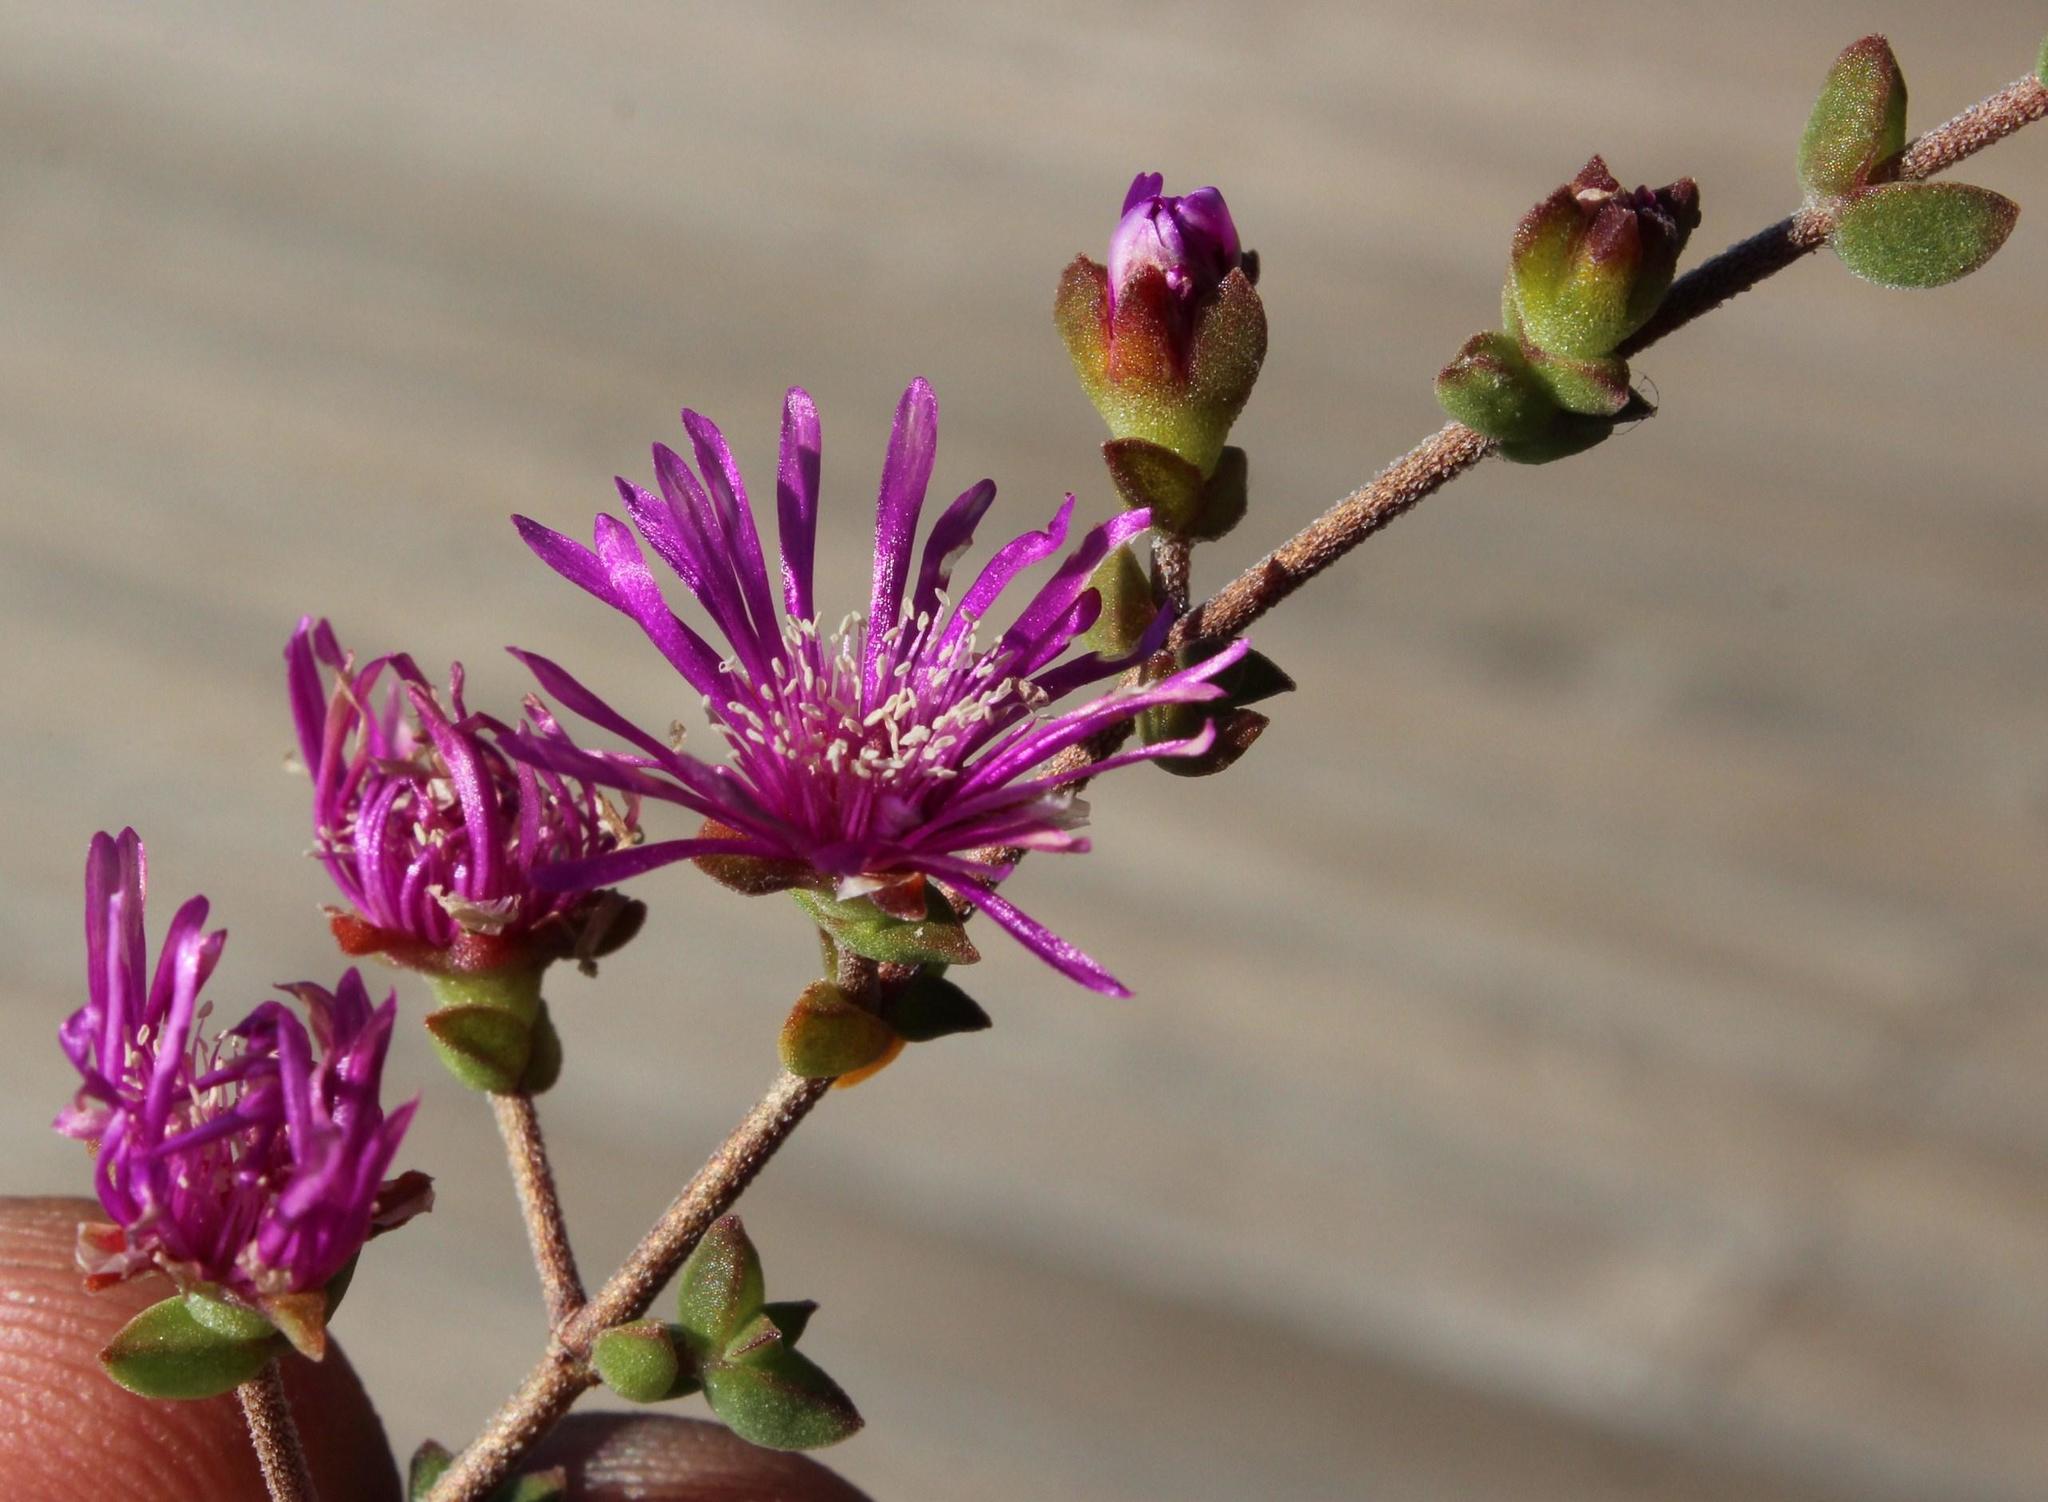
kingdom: Plantae
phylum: Tracheophyta
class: Magnoliopsida
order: Caryophyllales
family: Aizoaceae
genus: Drosanthemum
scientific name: Drosanthemum parvifolium
